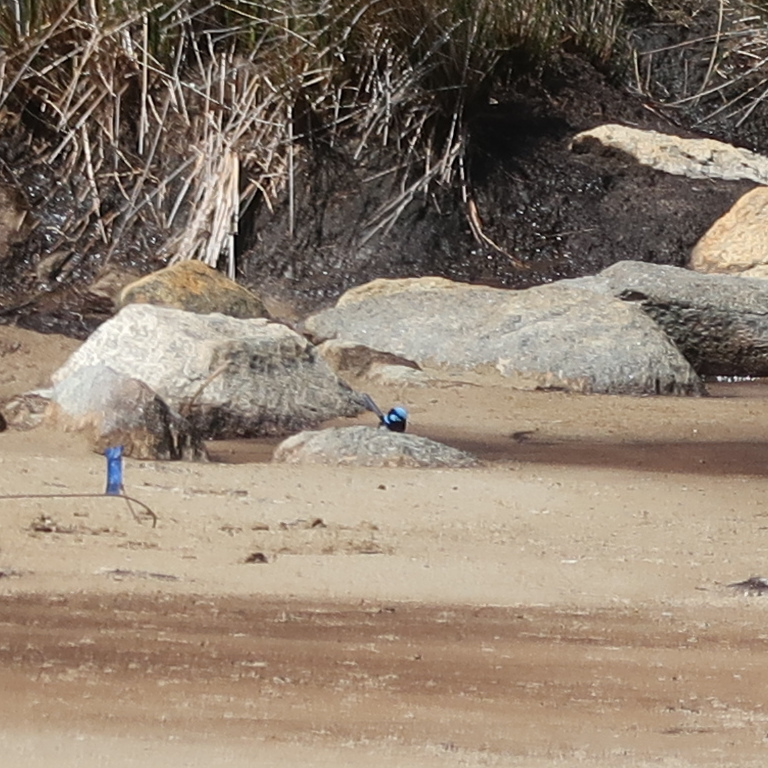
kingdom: Animalia
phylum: Chordata
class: Aves
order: Passeriformes
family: Maluridae
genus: Malurus
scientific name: Malurus cyaneus
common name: Superb fairywren
